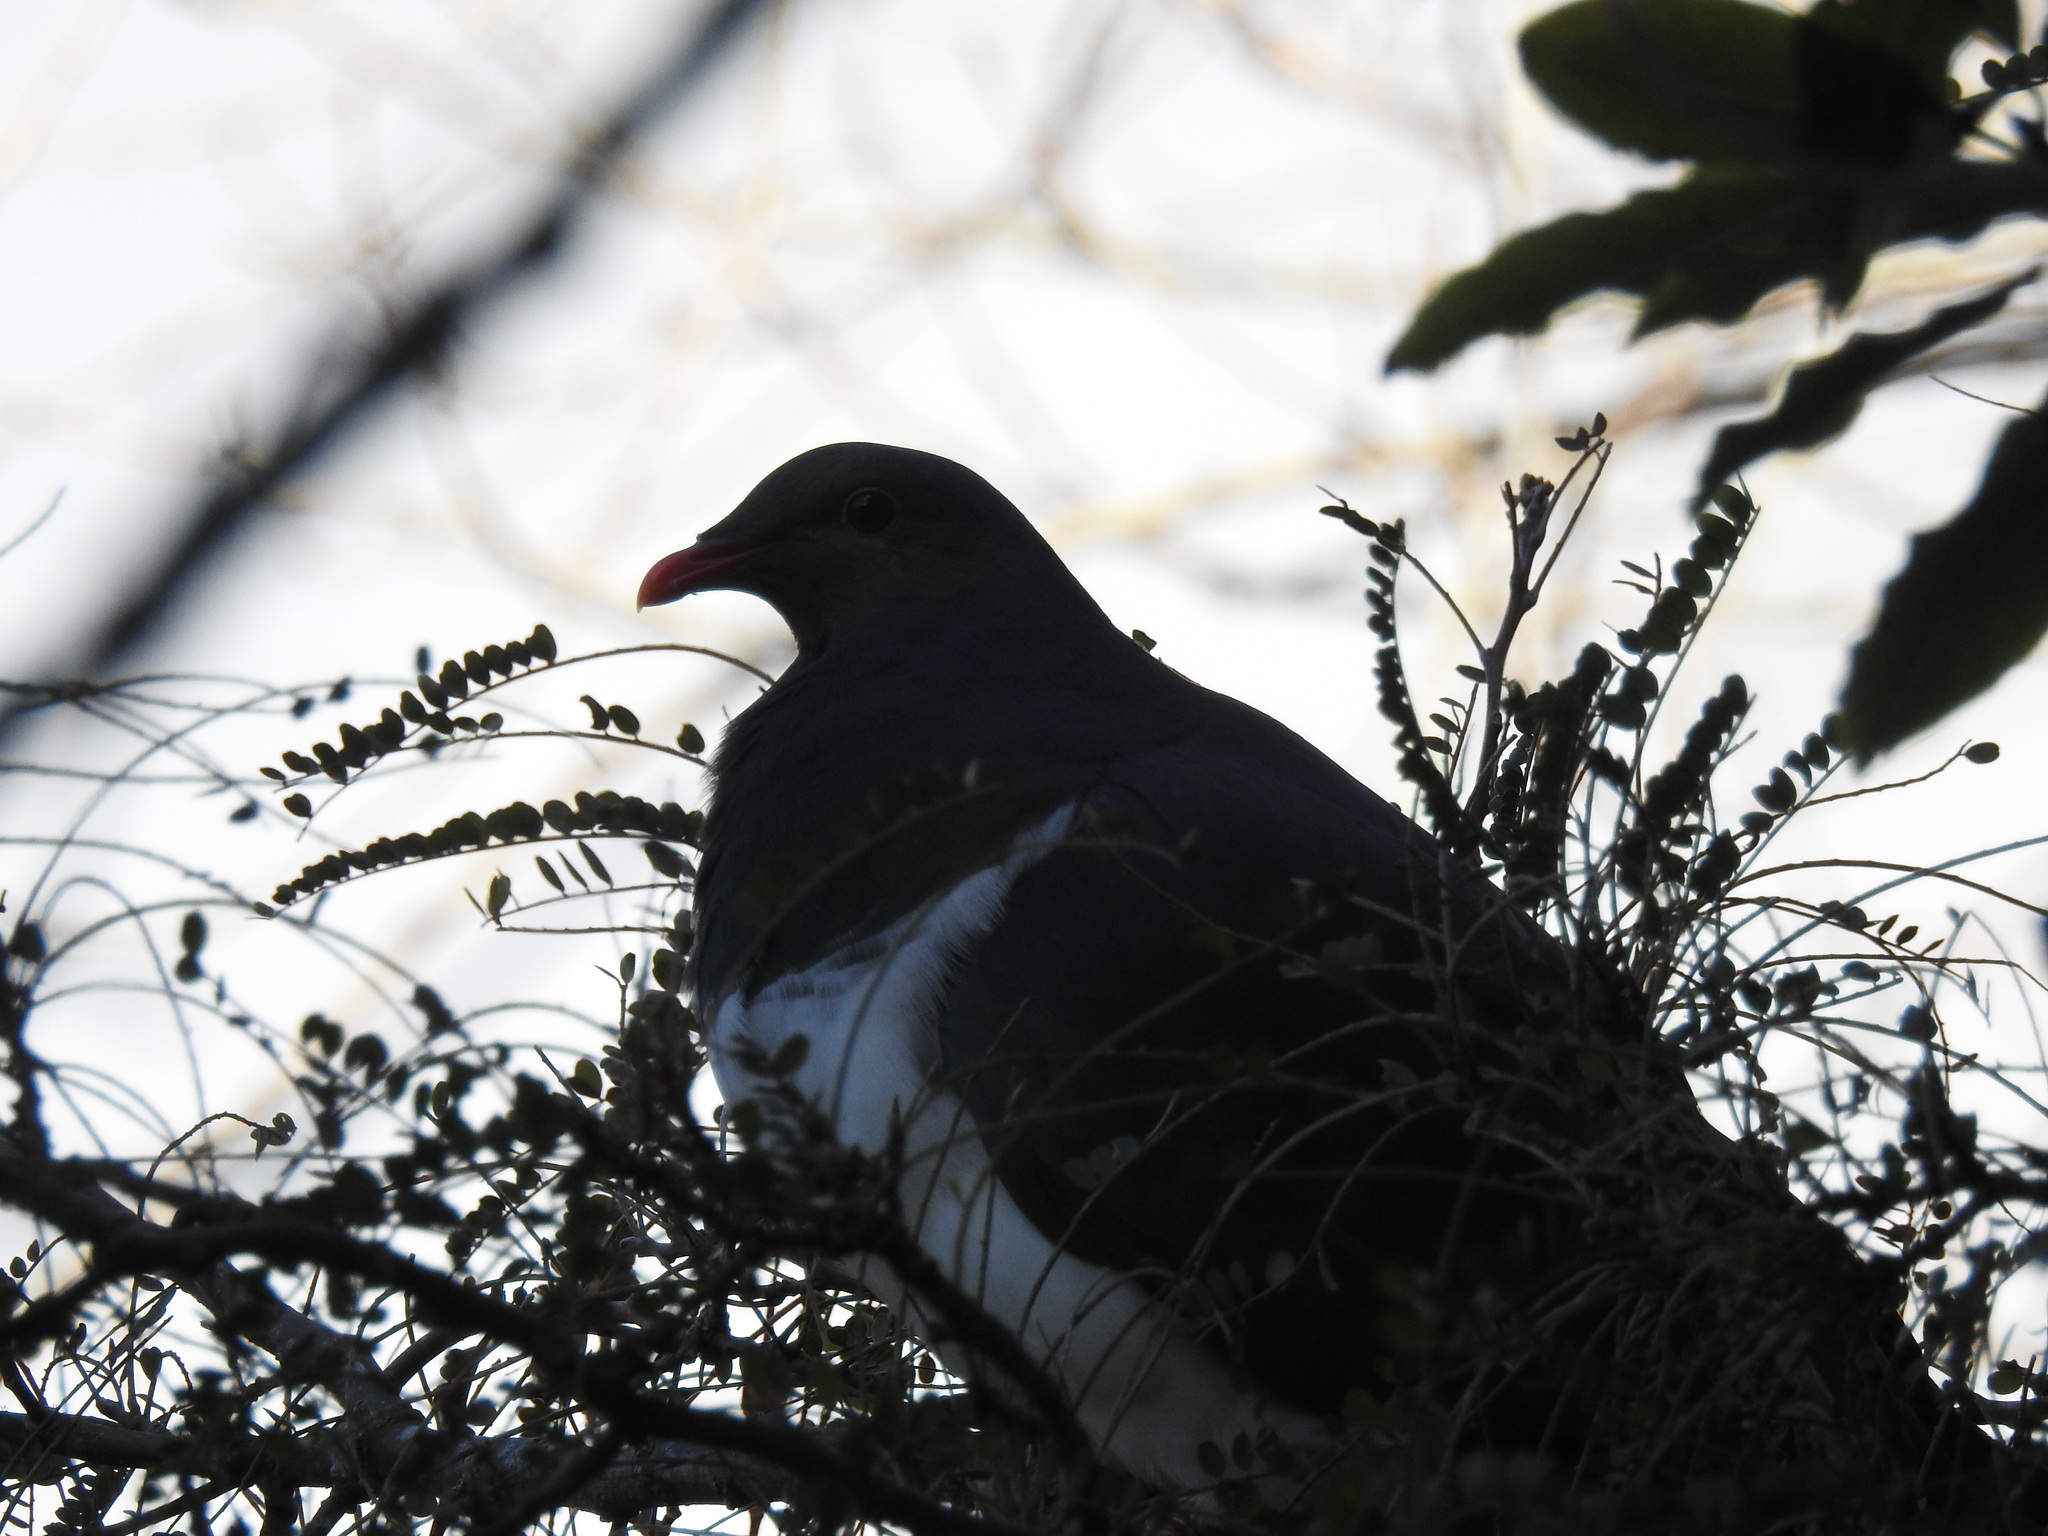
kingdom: Animalia
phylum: Chordata
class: Aves
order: Columbiformes
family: Columbidae
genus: Hemiphaga
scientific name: Hemiphaga novaeseelandiae
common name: New zealand pigeon
